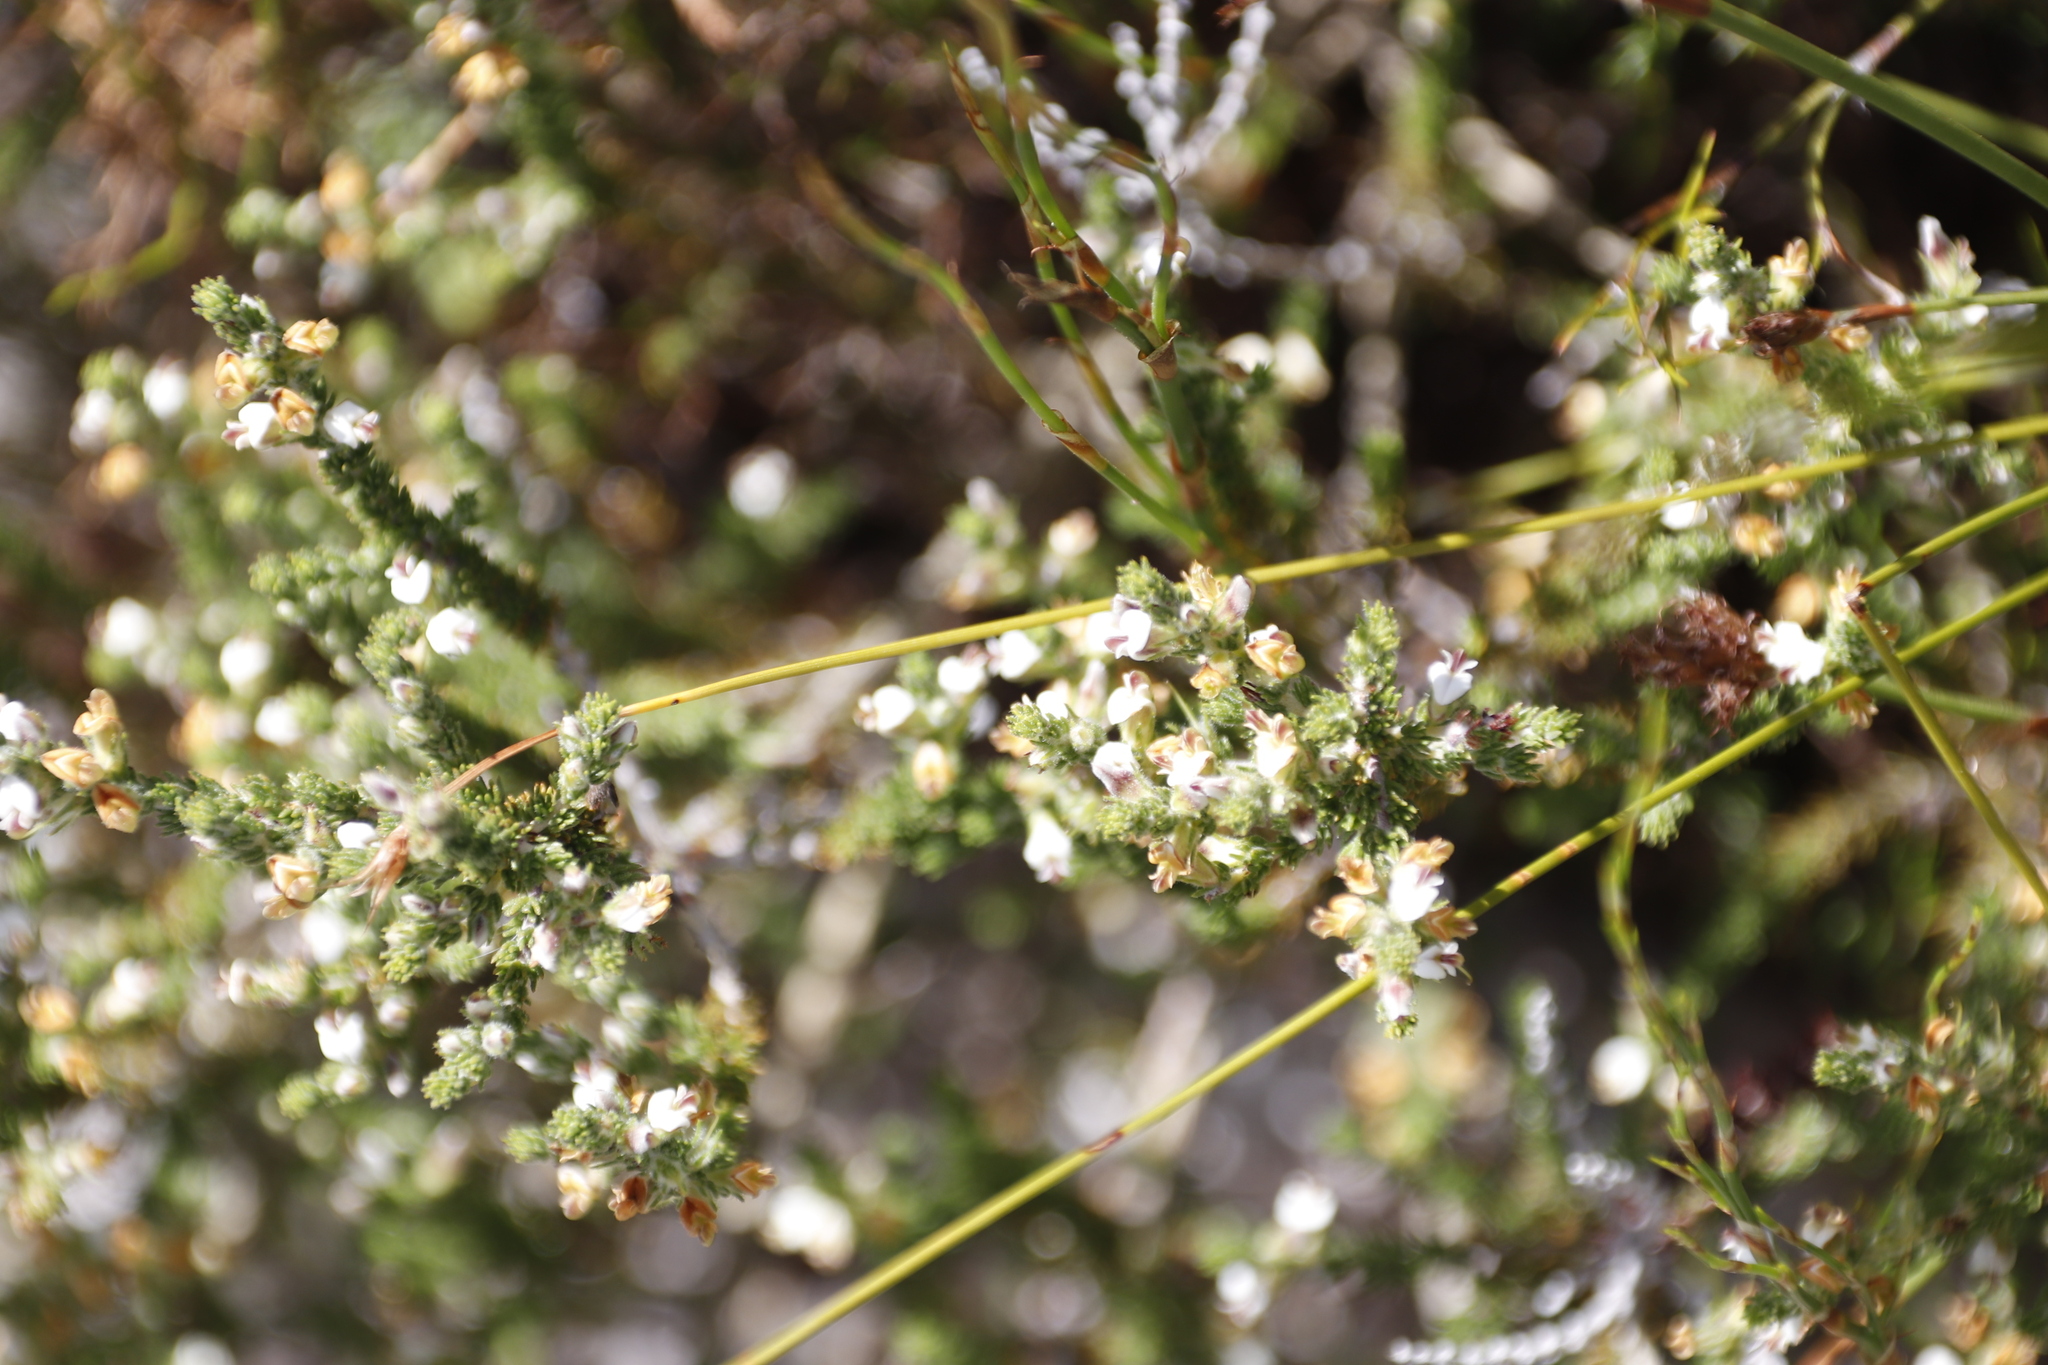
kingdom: Plantae
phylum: Tracheophyta
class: Magnoliopsida
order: Fabales
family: Fabaceae
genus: Aspalathus
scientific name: Aspalathus hispida
